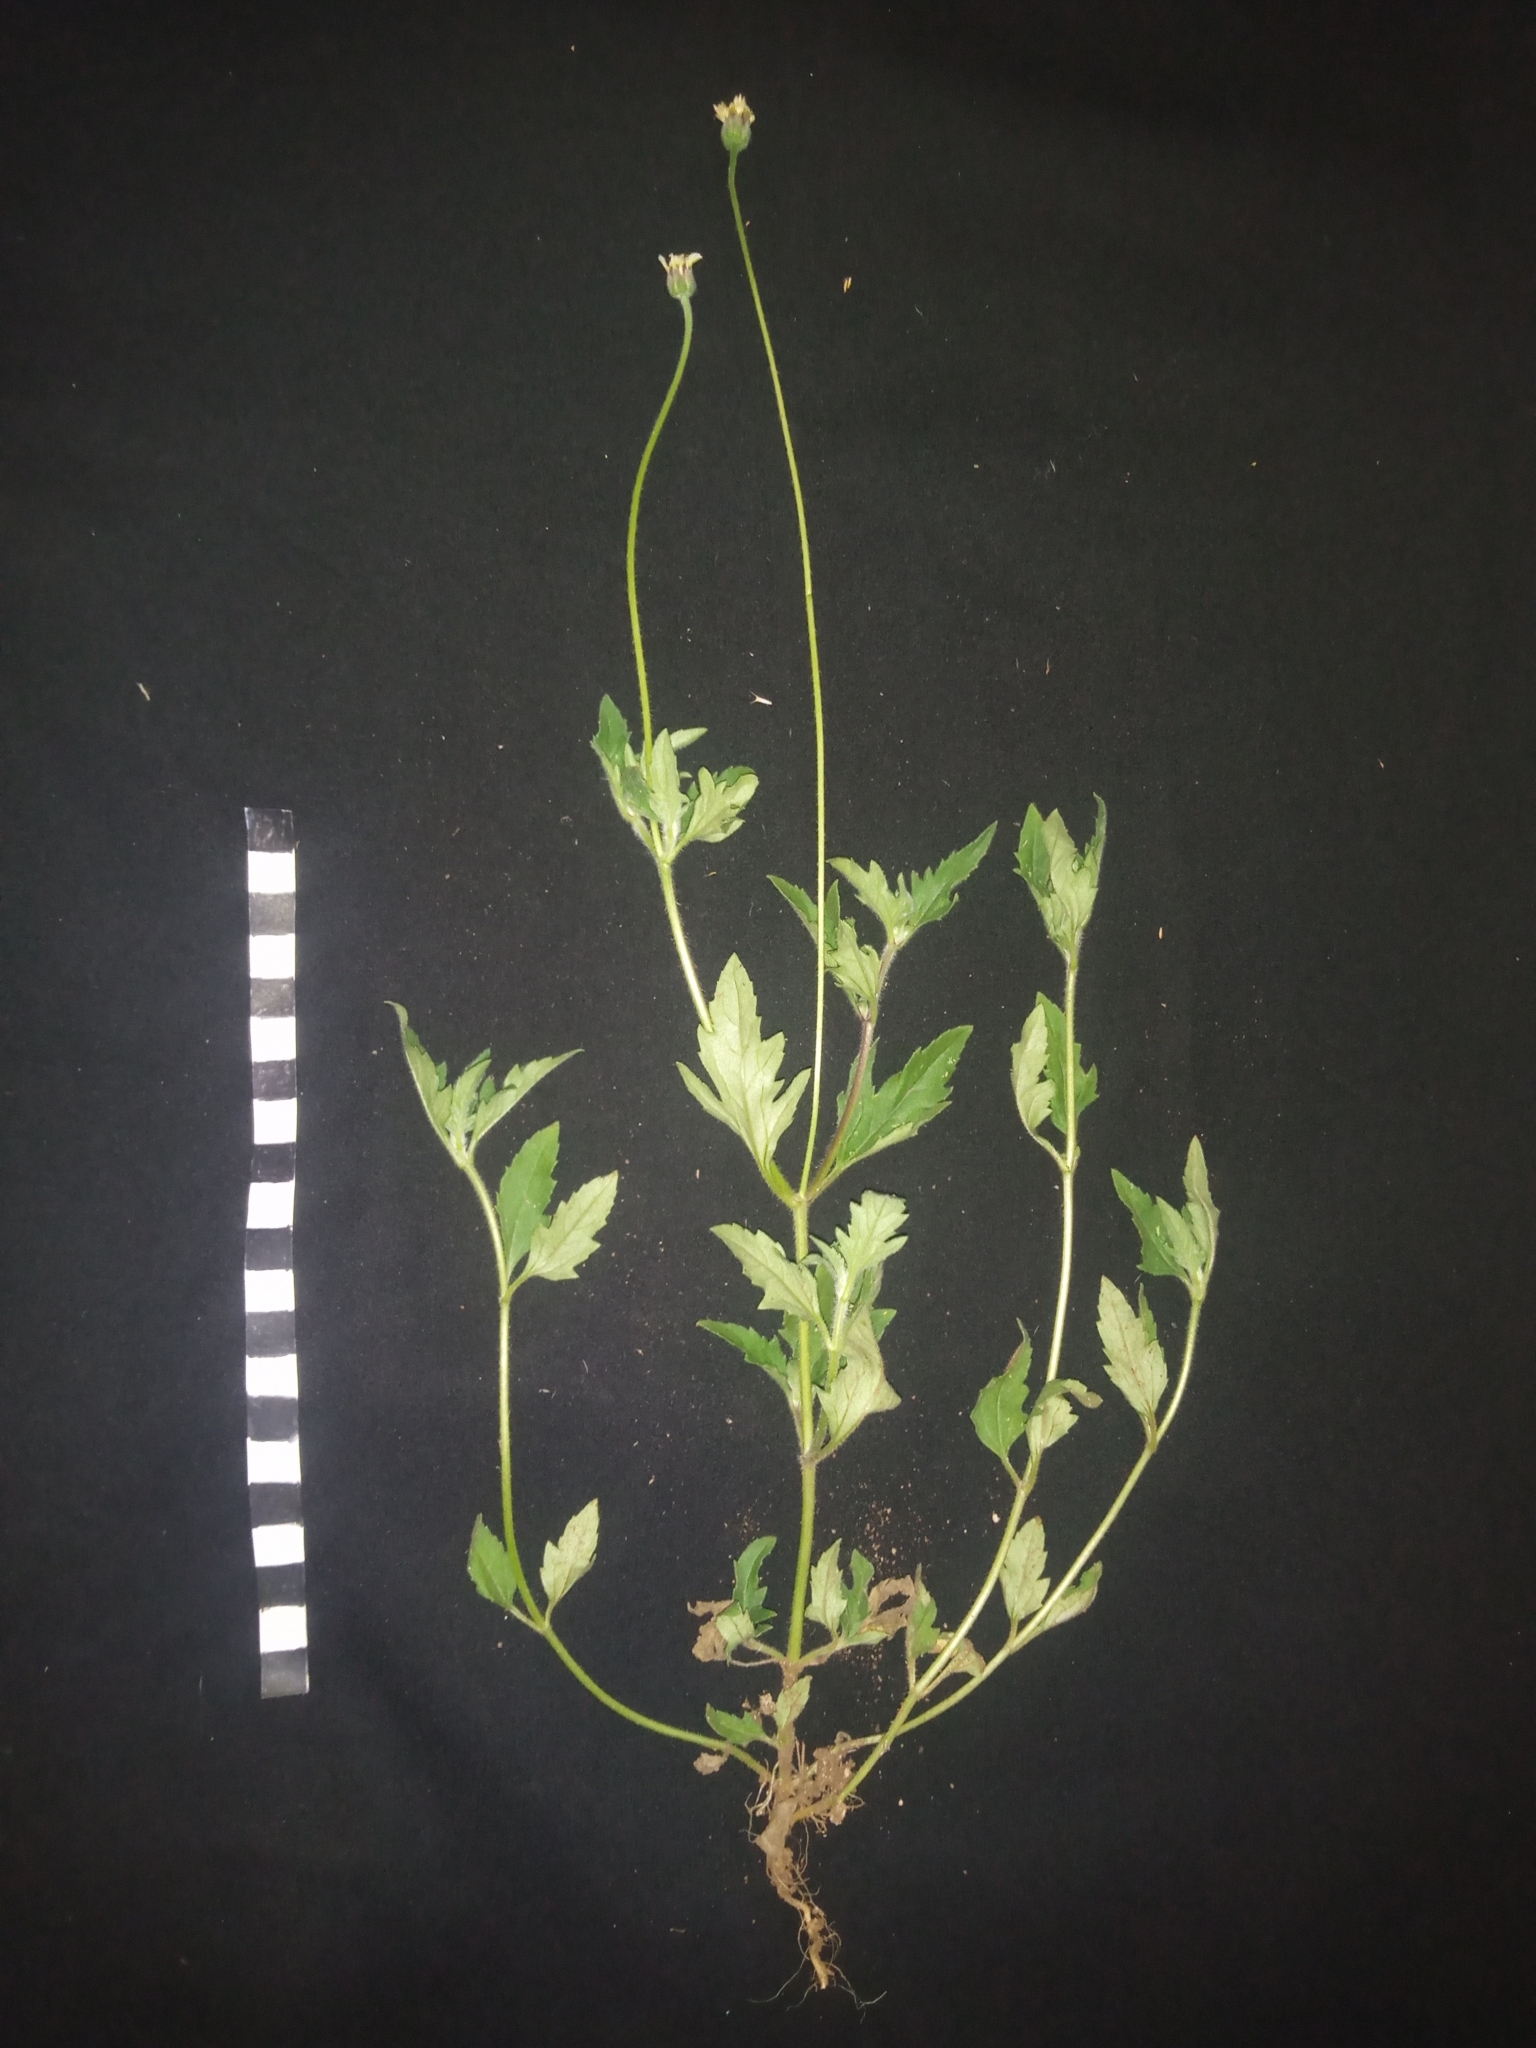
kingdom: Plantae
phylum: Tracheophyta
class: Magnoliopsida
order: Asterales
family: Asteraceae
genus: Tridax
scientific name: Tridax procumbens
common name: Coatbuttons
